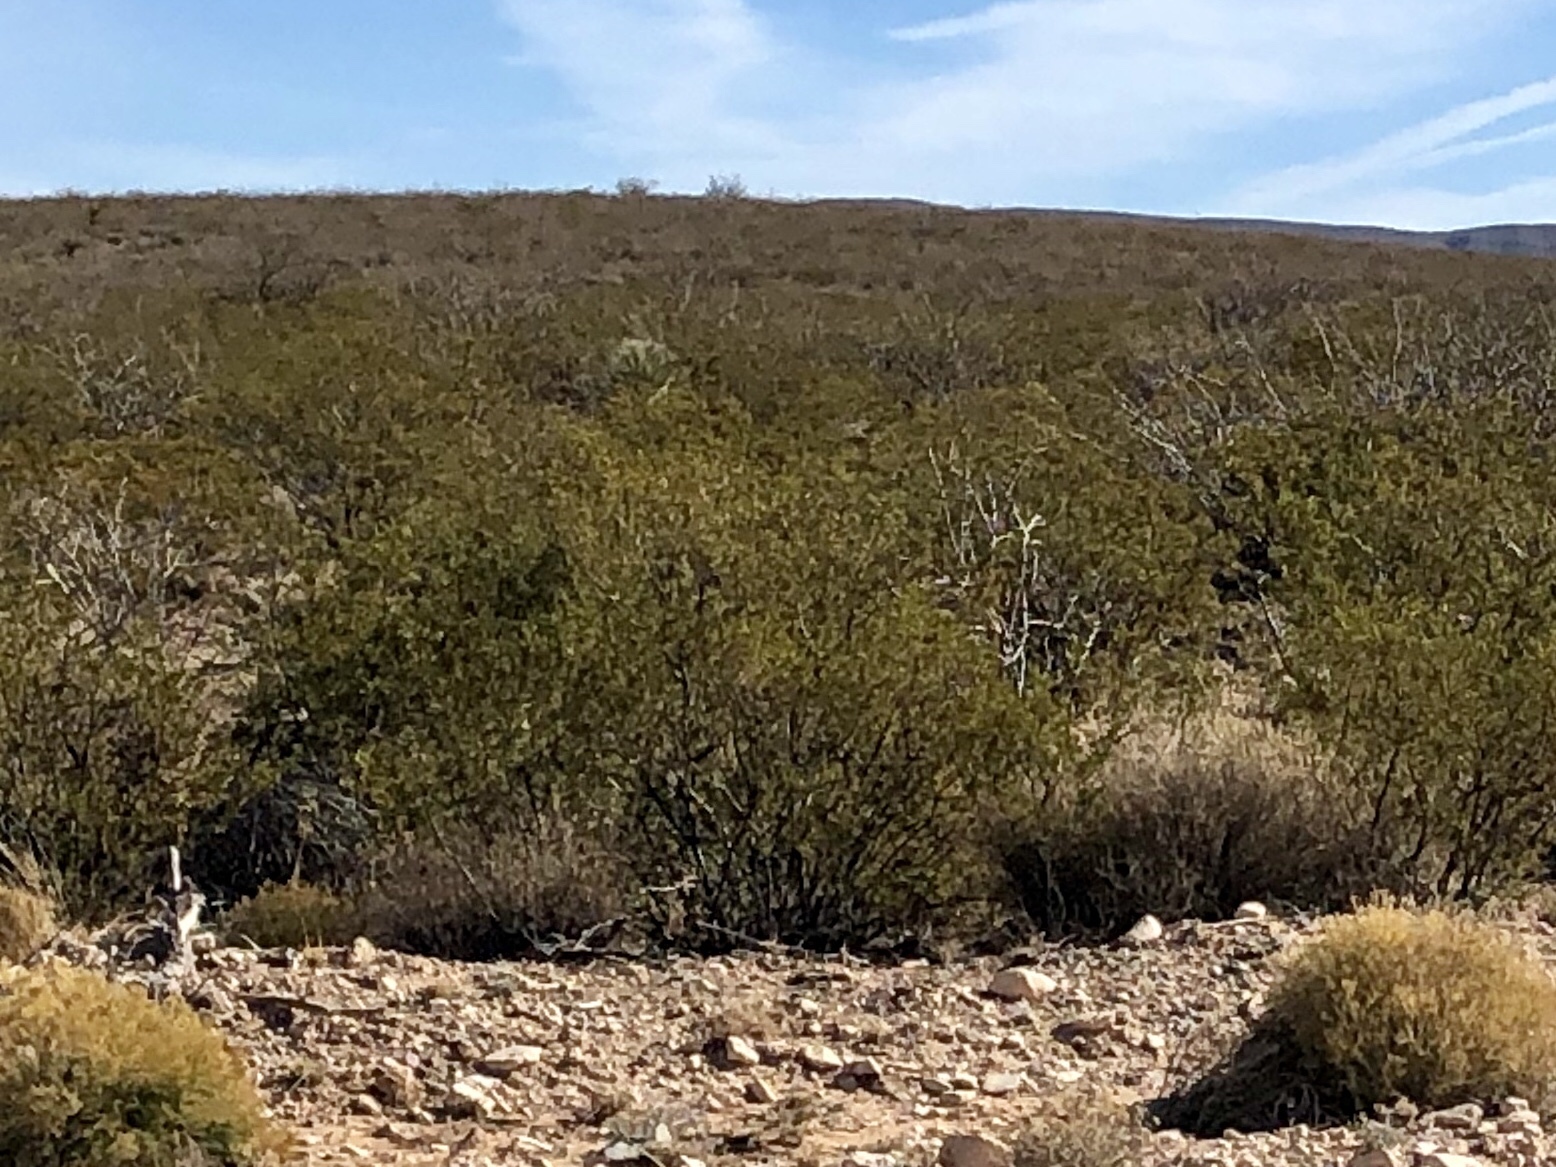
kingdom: Plantae
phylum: Tracheophyta
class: Magnoliopsida
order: Zygophyllales
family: Zygophyllaceae
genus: Larrea
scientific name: Larrea tridentata
